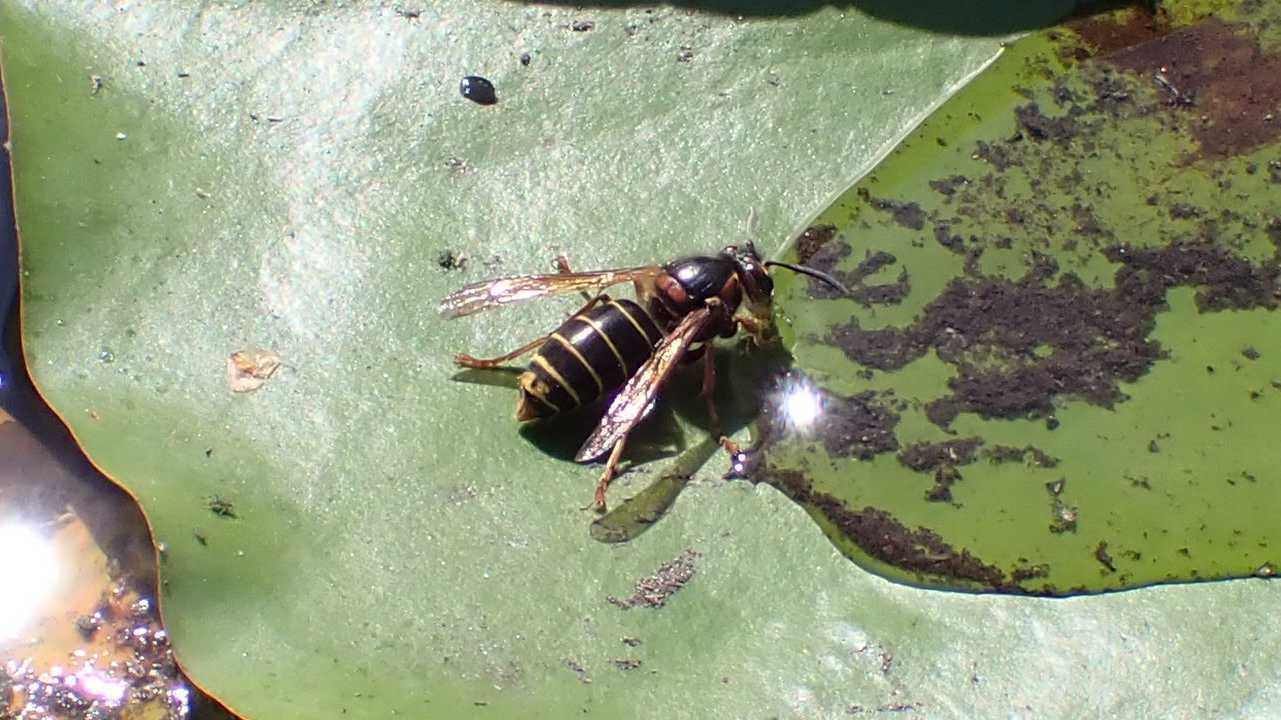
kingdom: Animalia
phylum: Arthropoda
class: Insecta
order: Hymenoptera
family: Vespidae
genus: Dolichovespula
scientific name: Dolichovespula media
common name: Median wasp
